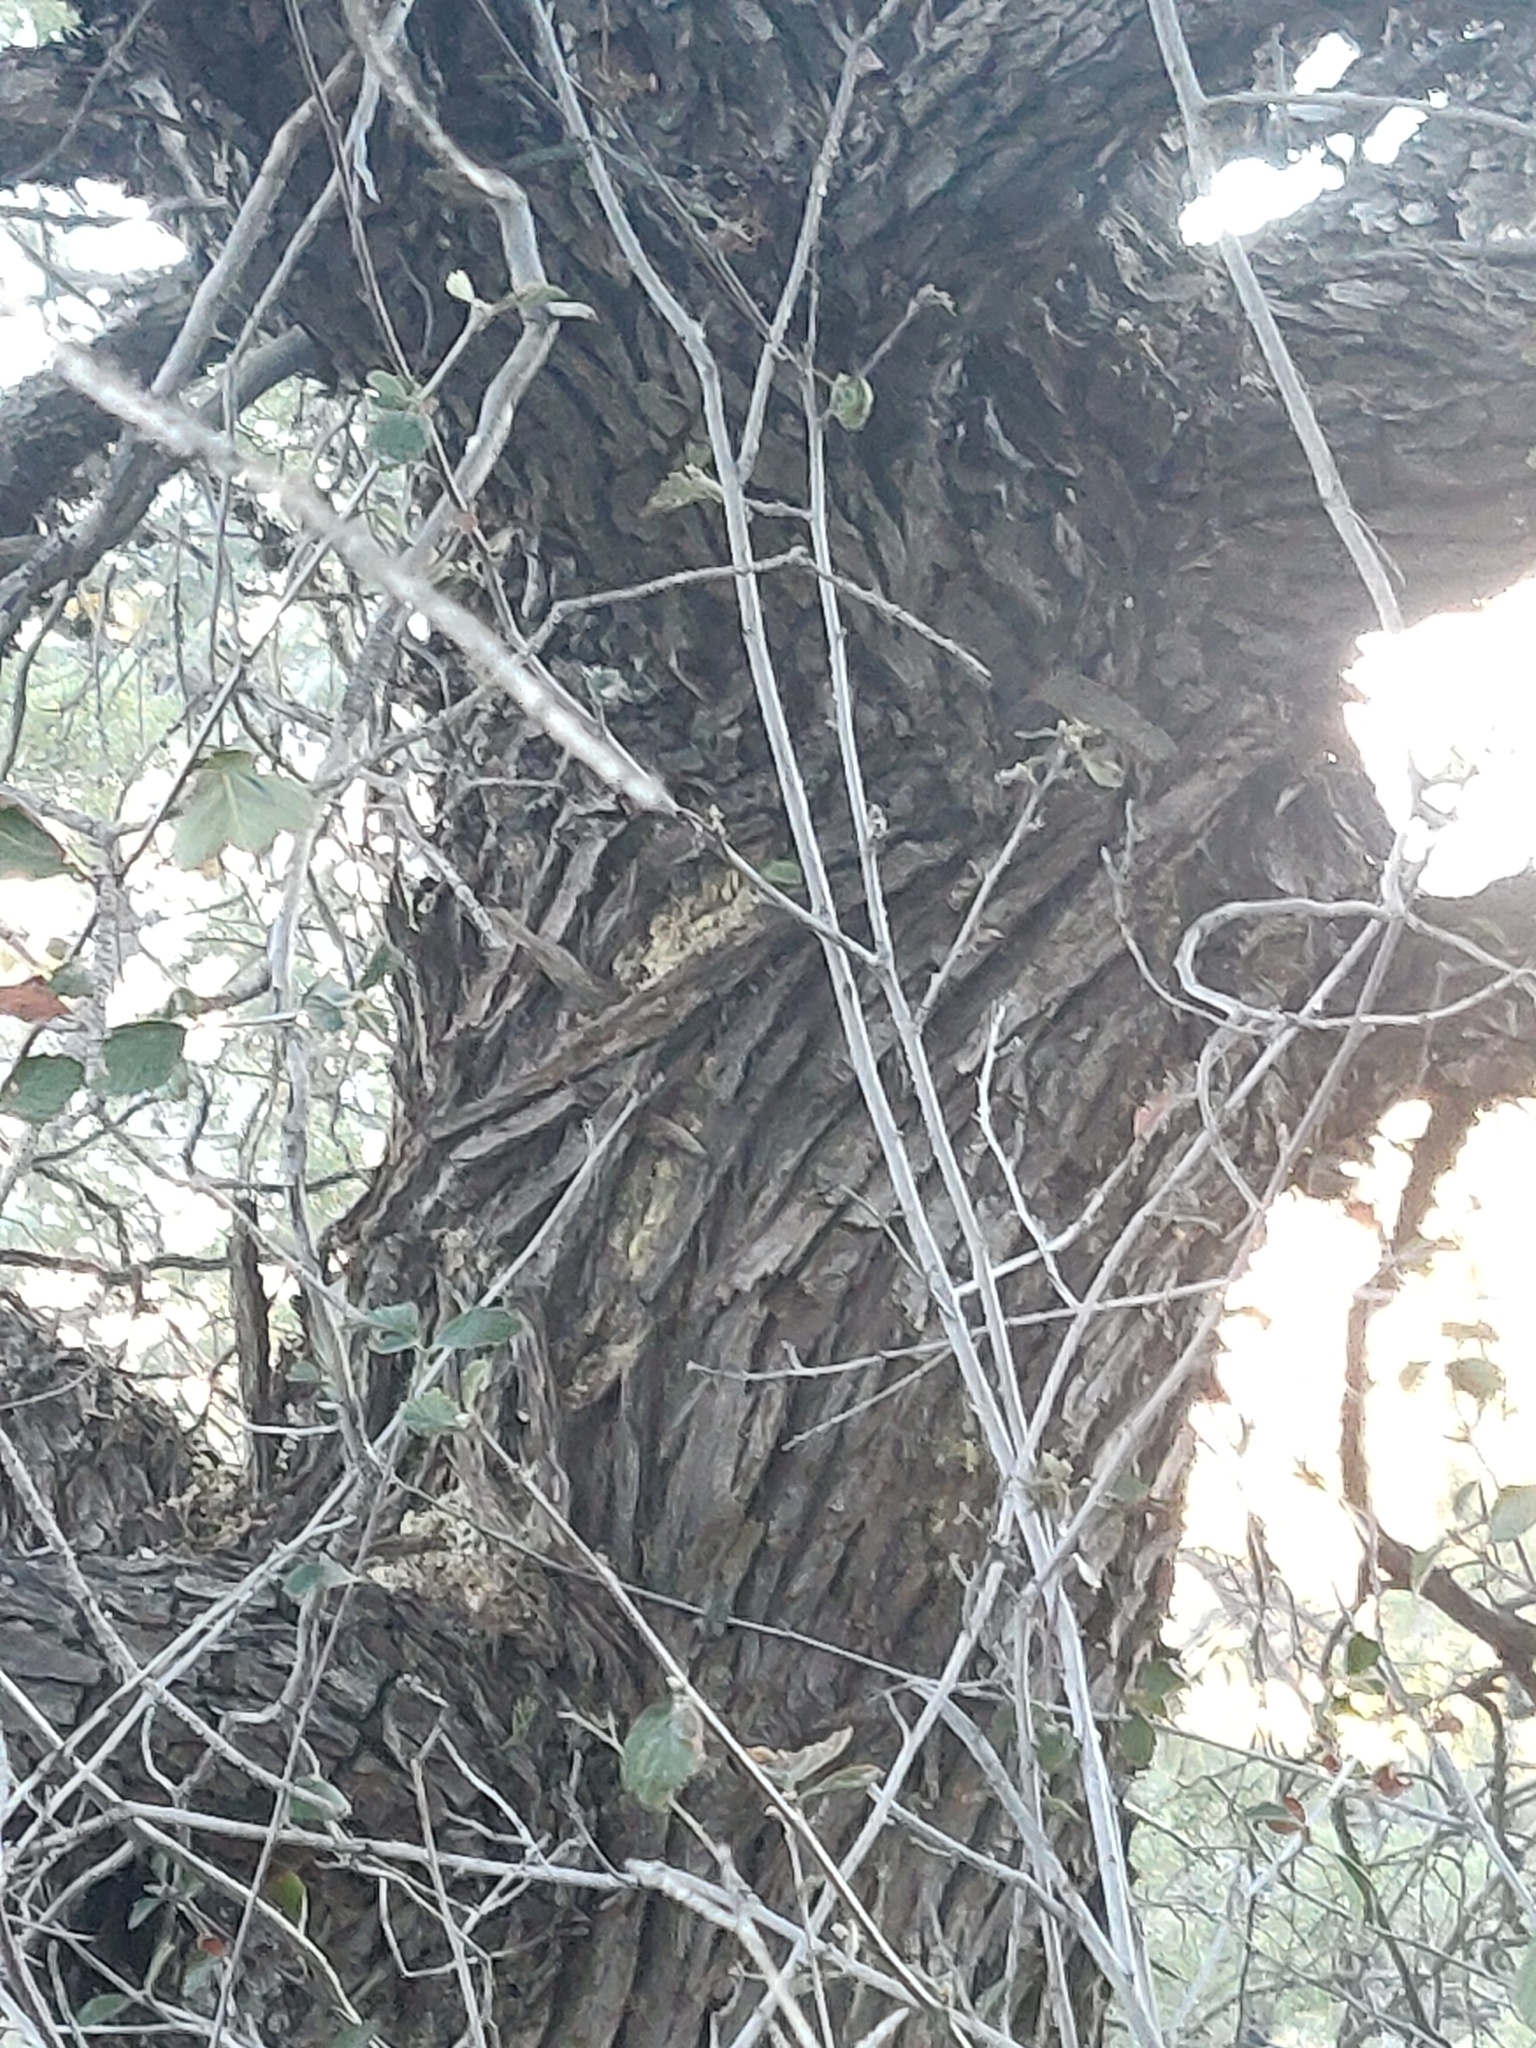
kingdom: Plantae
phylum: Tracheophyta
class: Pinopsida
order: Pinales
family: Cupressaceae
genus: Cupressus
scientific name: Cupressus arizonica
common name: Arizona cypress
